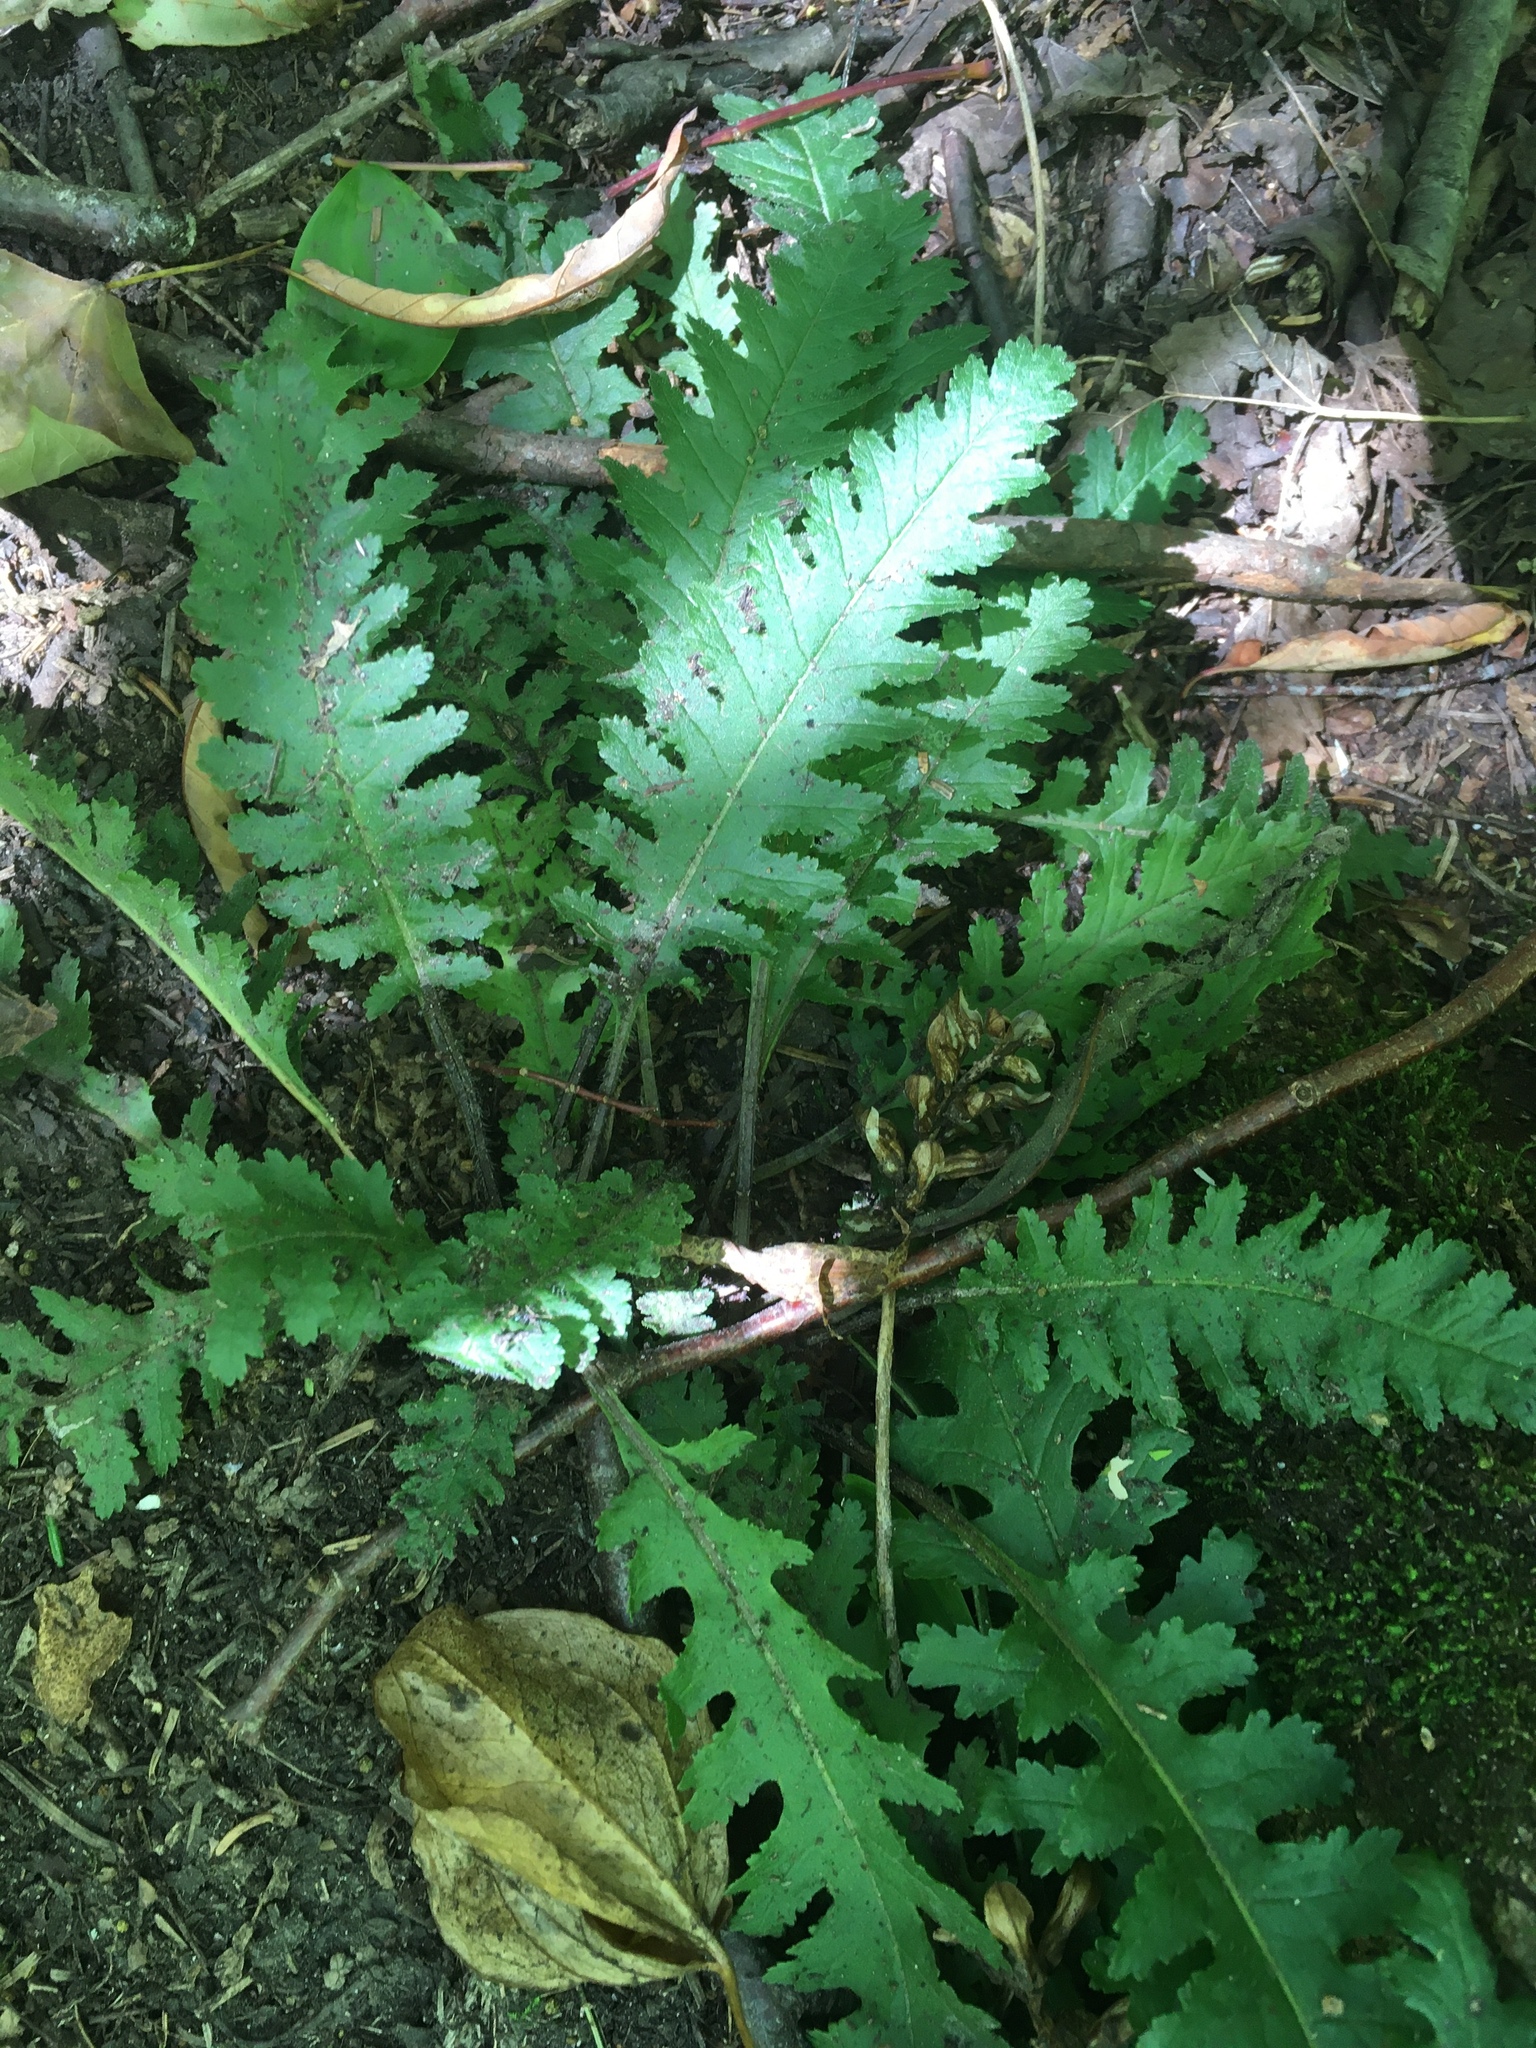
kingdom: Plantae
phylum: Tracheophyta
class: Magnoliopsida
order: Lamiales
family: Orobanchaceae
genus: Pedicularis
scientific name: Pedicularis canadensis
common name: Early lousewort
